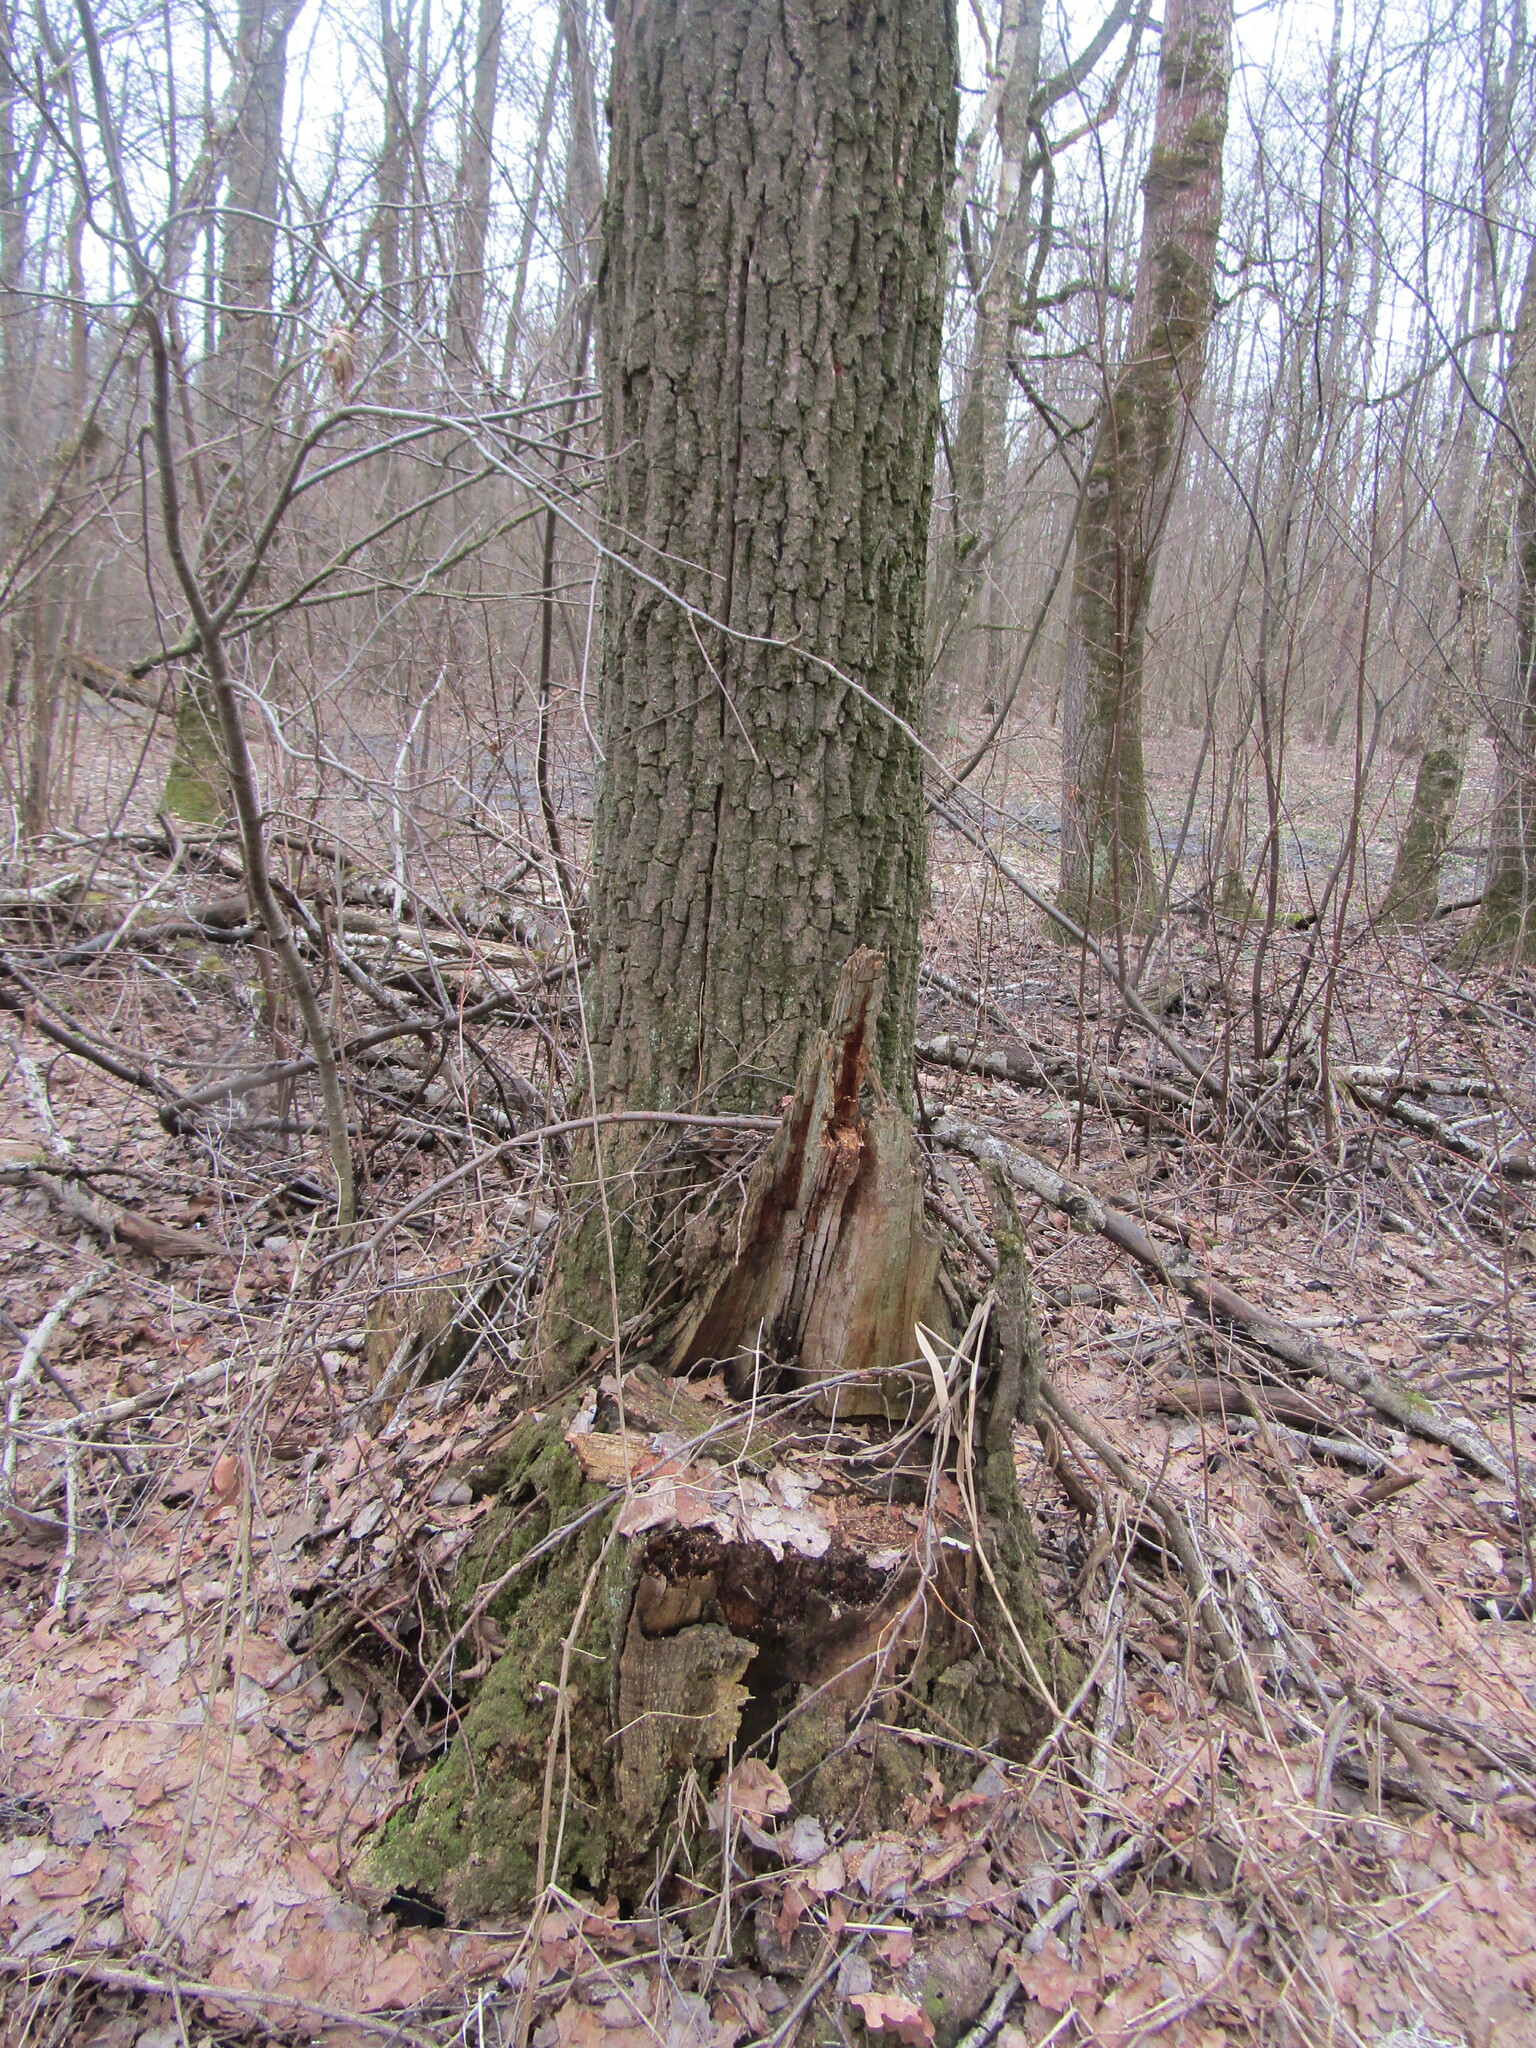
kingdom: Plantae
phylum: Tracheophyta
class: Magnoliopsida
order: Fagales
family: Fagaceae
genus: Quercus
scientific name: Quercus robur
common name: Pedunculate oak
